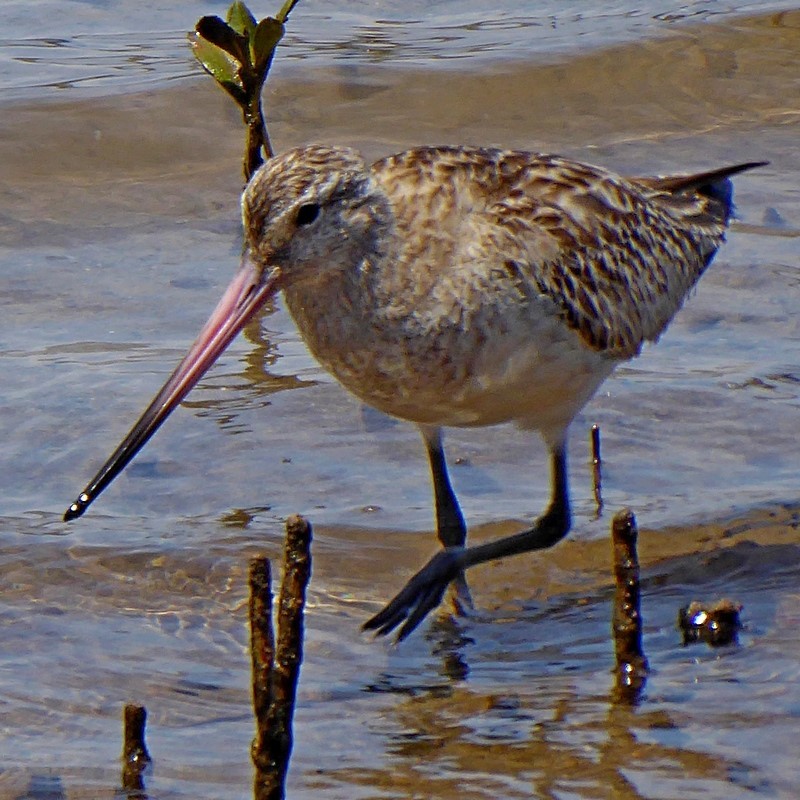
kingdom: Animalia
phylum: Chordata
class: Aves
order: Charadriiformes
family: Scolopacidae
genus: Limosa
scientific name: Limosa lapponica
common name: Bar-tailed godwit
